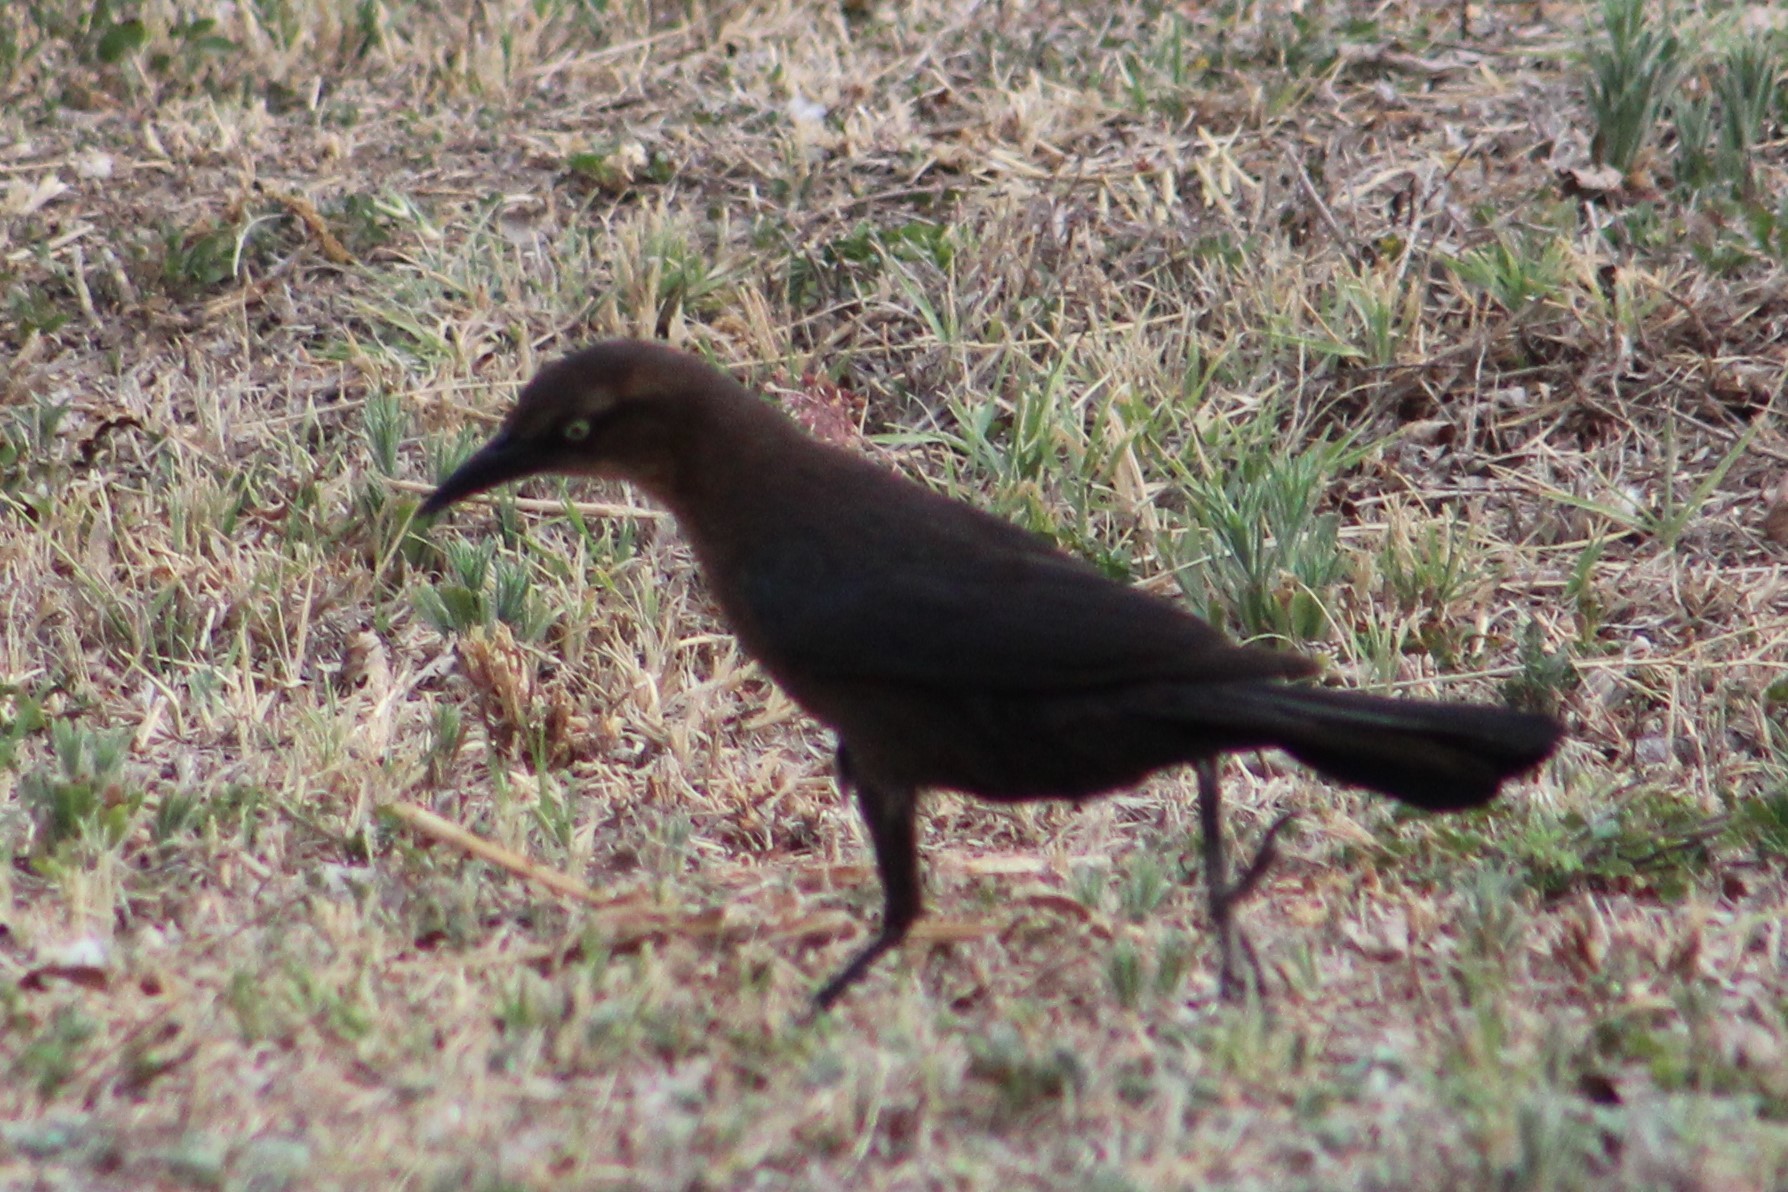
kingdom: Animalia
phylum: Chordata
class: Aves
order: Passeriformes
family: Icteridae
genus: Quiscalus
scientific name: Quiscalus mexicanus
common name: Great-tailed grackle
